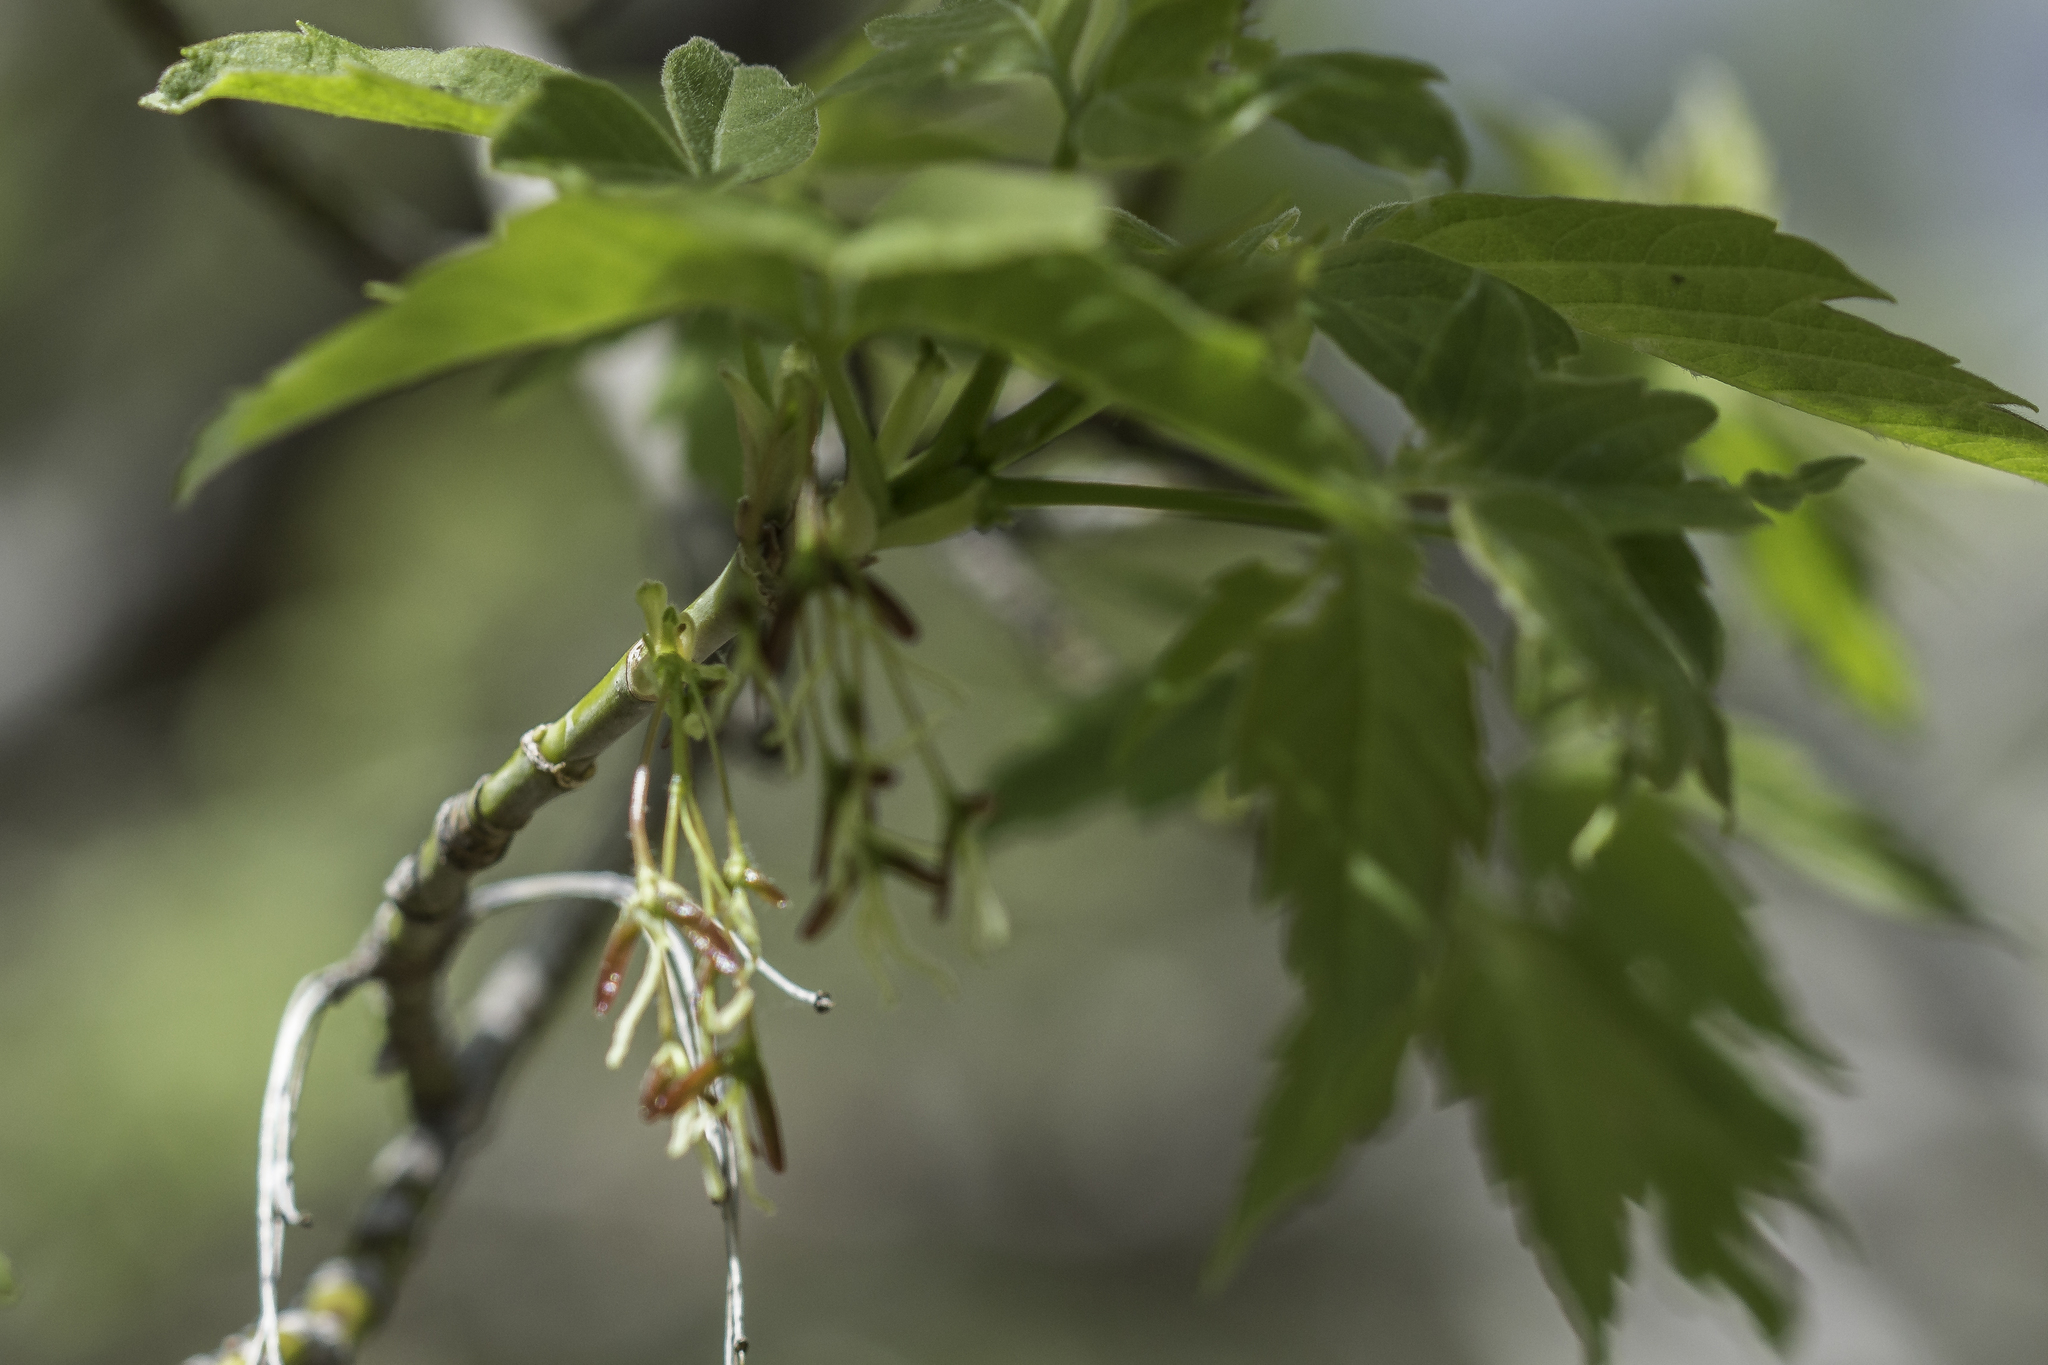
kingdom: Plantae
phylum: Tracheophyta
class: Magnoliopsida
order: Sapindales
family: Sapindaceae
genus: Acer
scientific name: Acer negundo
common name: Ashleaf maple
